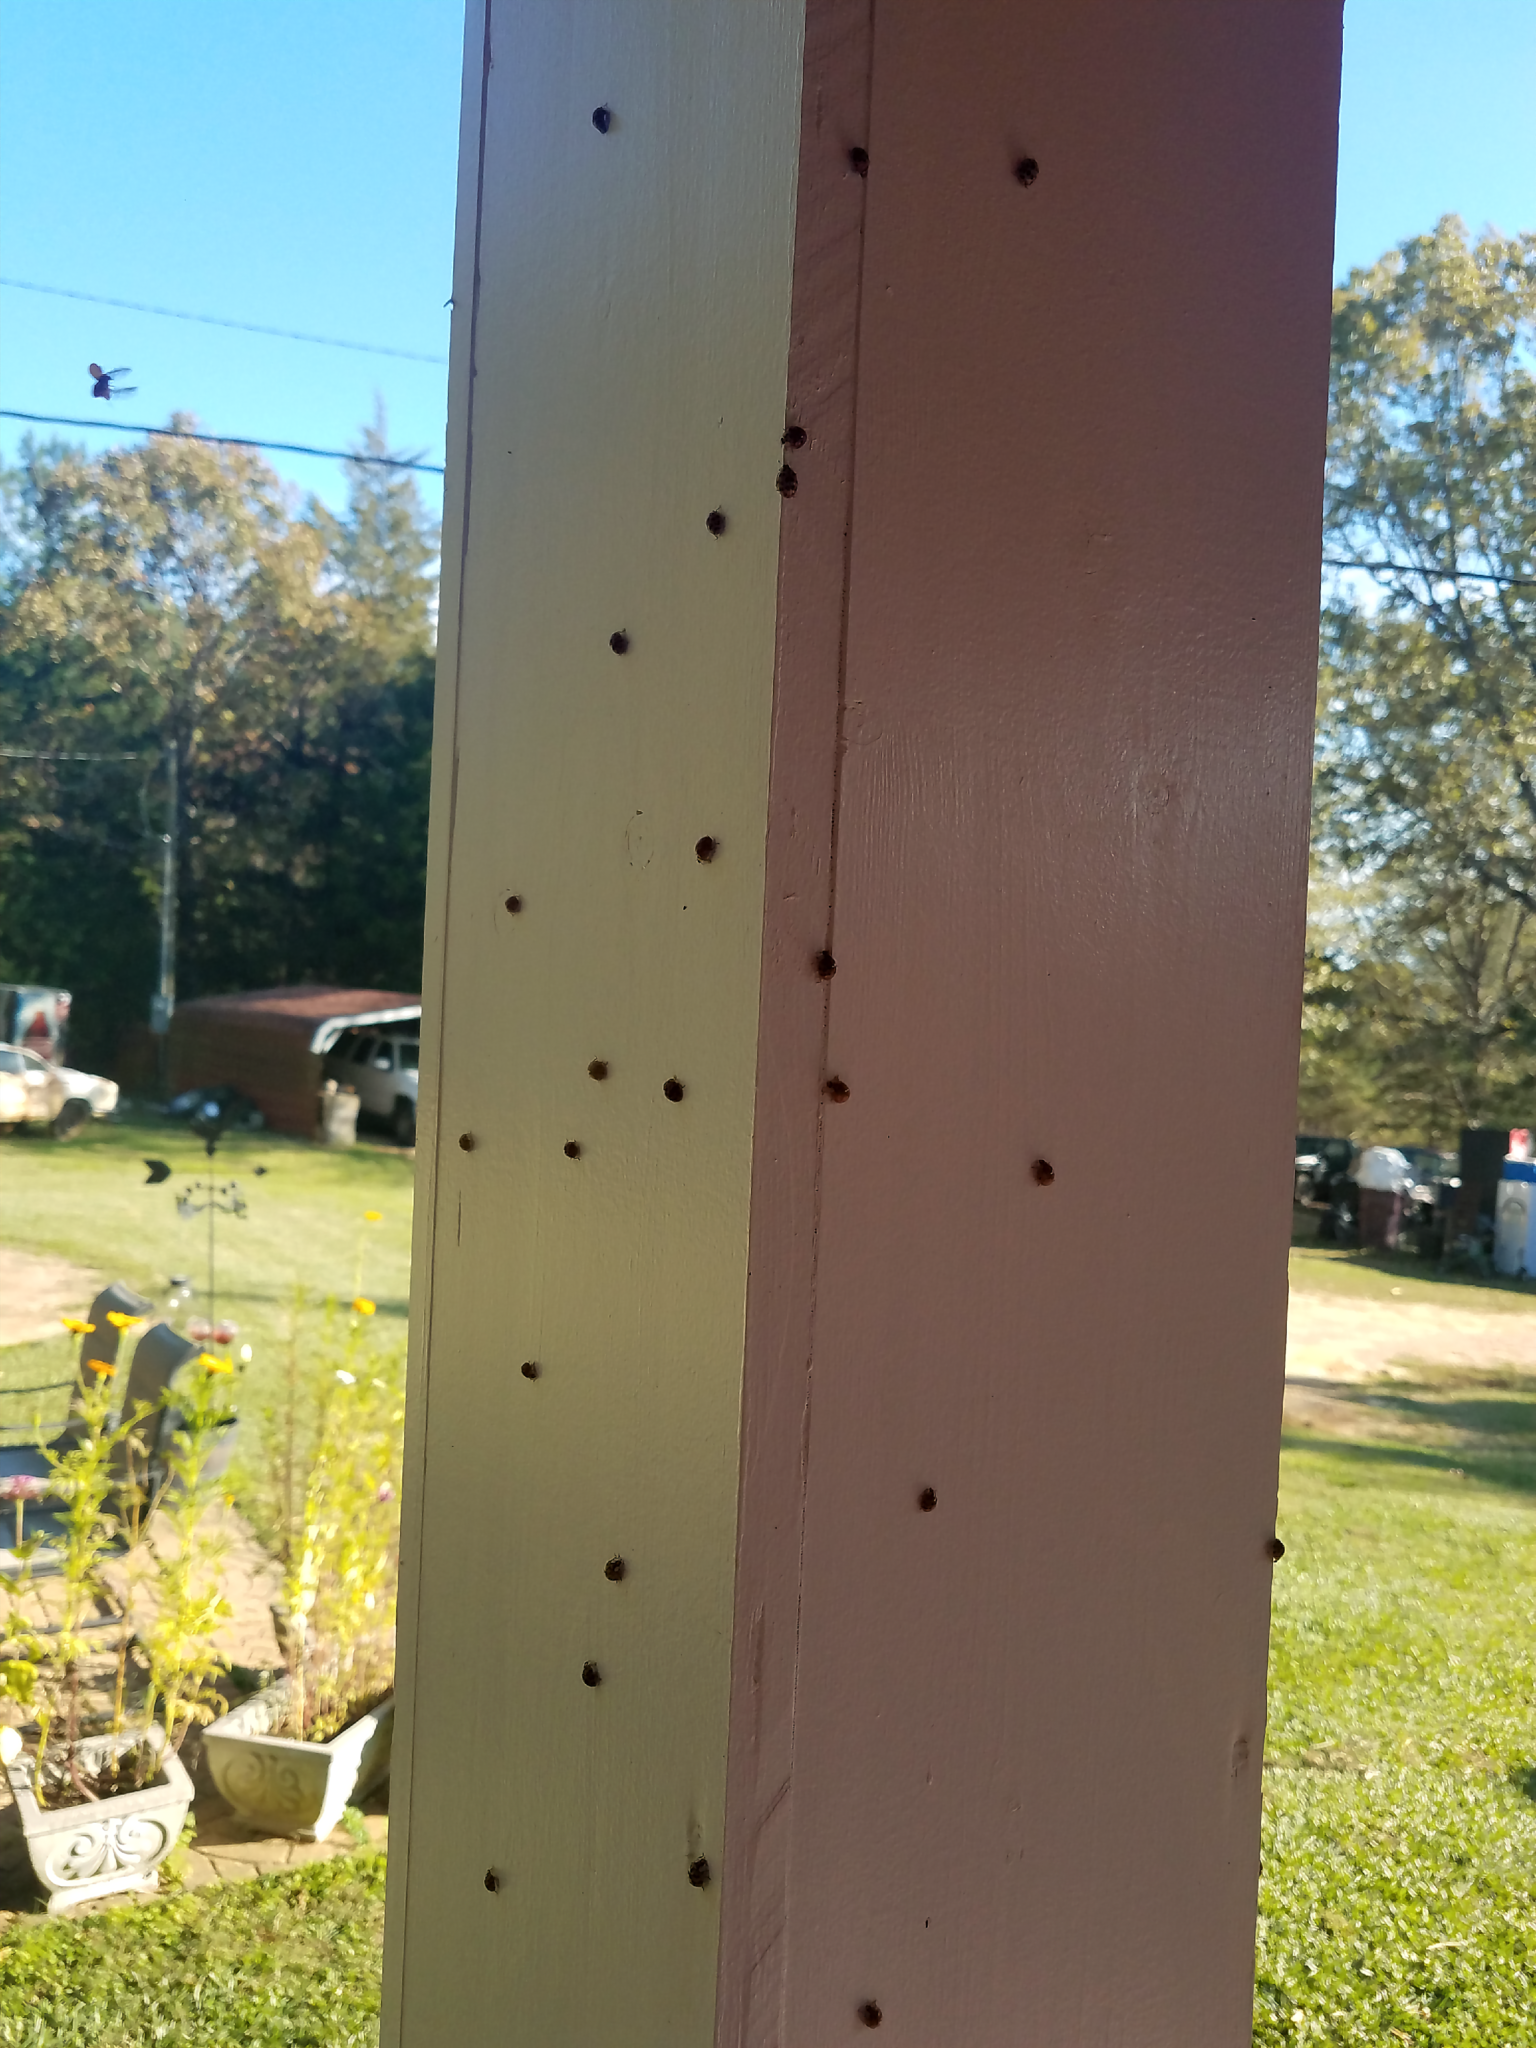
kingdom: Animalia
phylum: Arthropoda
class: Insecta
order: Coleoptera
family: Coccinellidae
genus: Harmonia
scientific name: Harmonia axyridis
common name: Harlequin ladybird
